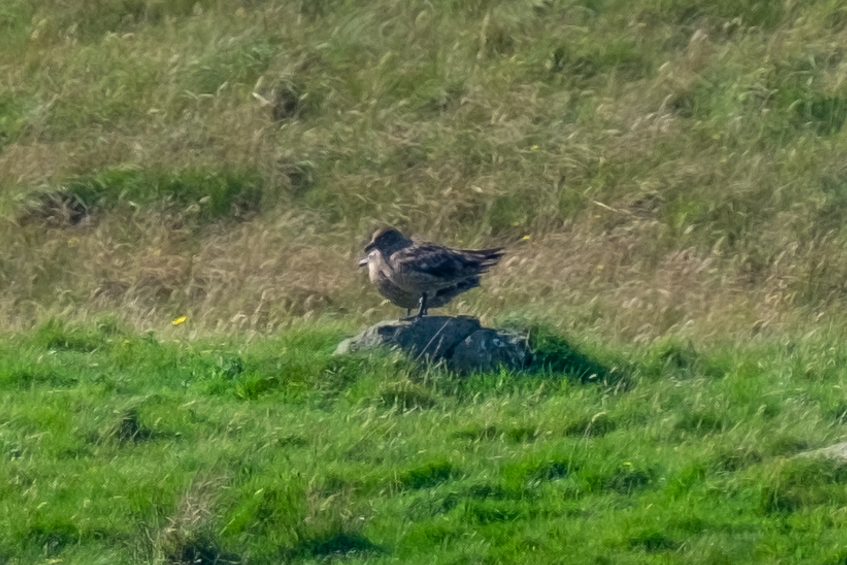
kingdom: Animalia
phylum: Chordata
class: Aves
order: Charadriiformes
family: Stercorariidae
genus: Stercorarius
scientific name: Stercorarius skua
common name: Great skua
